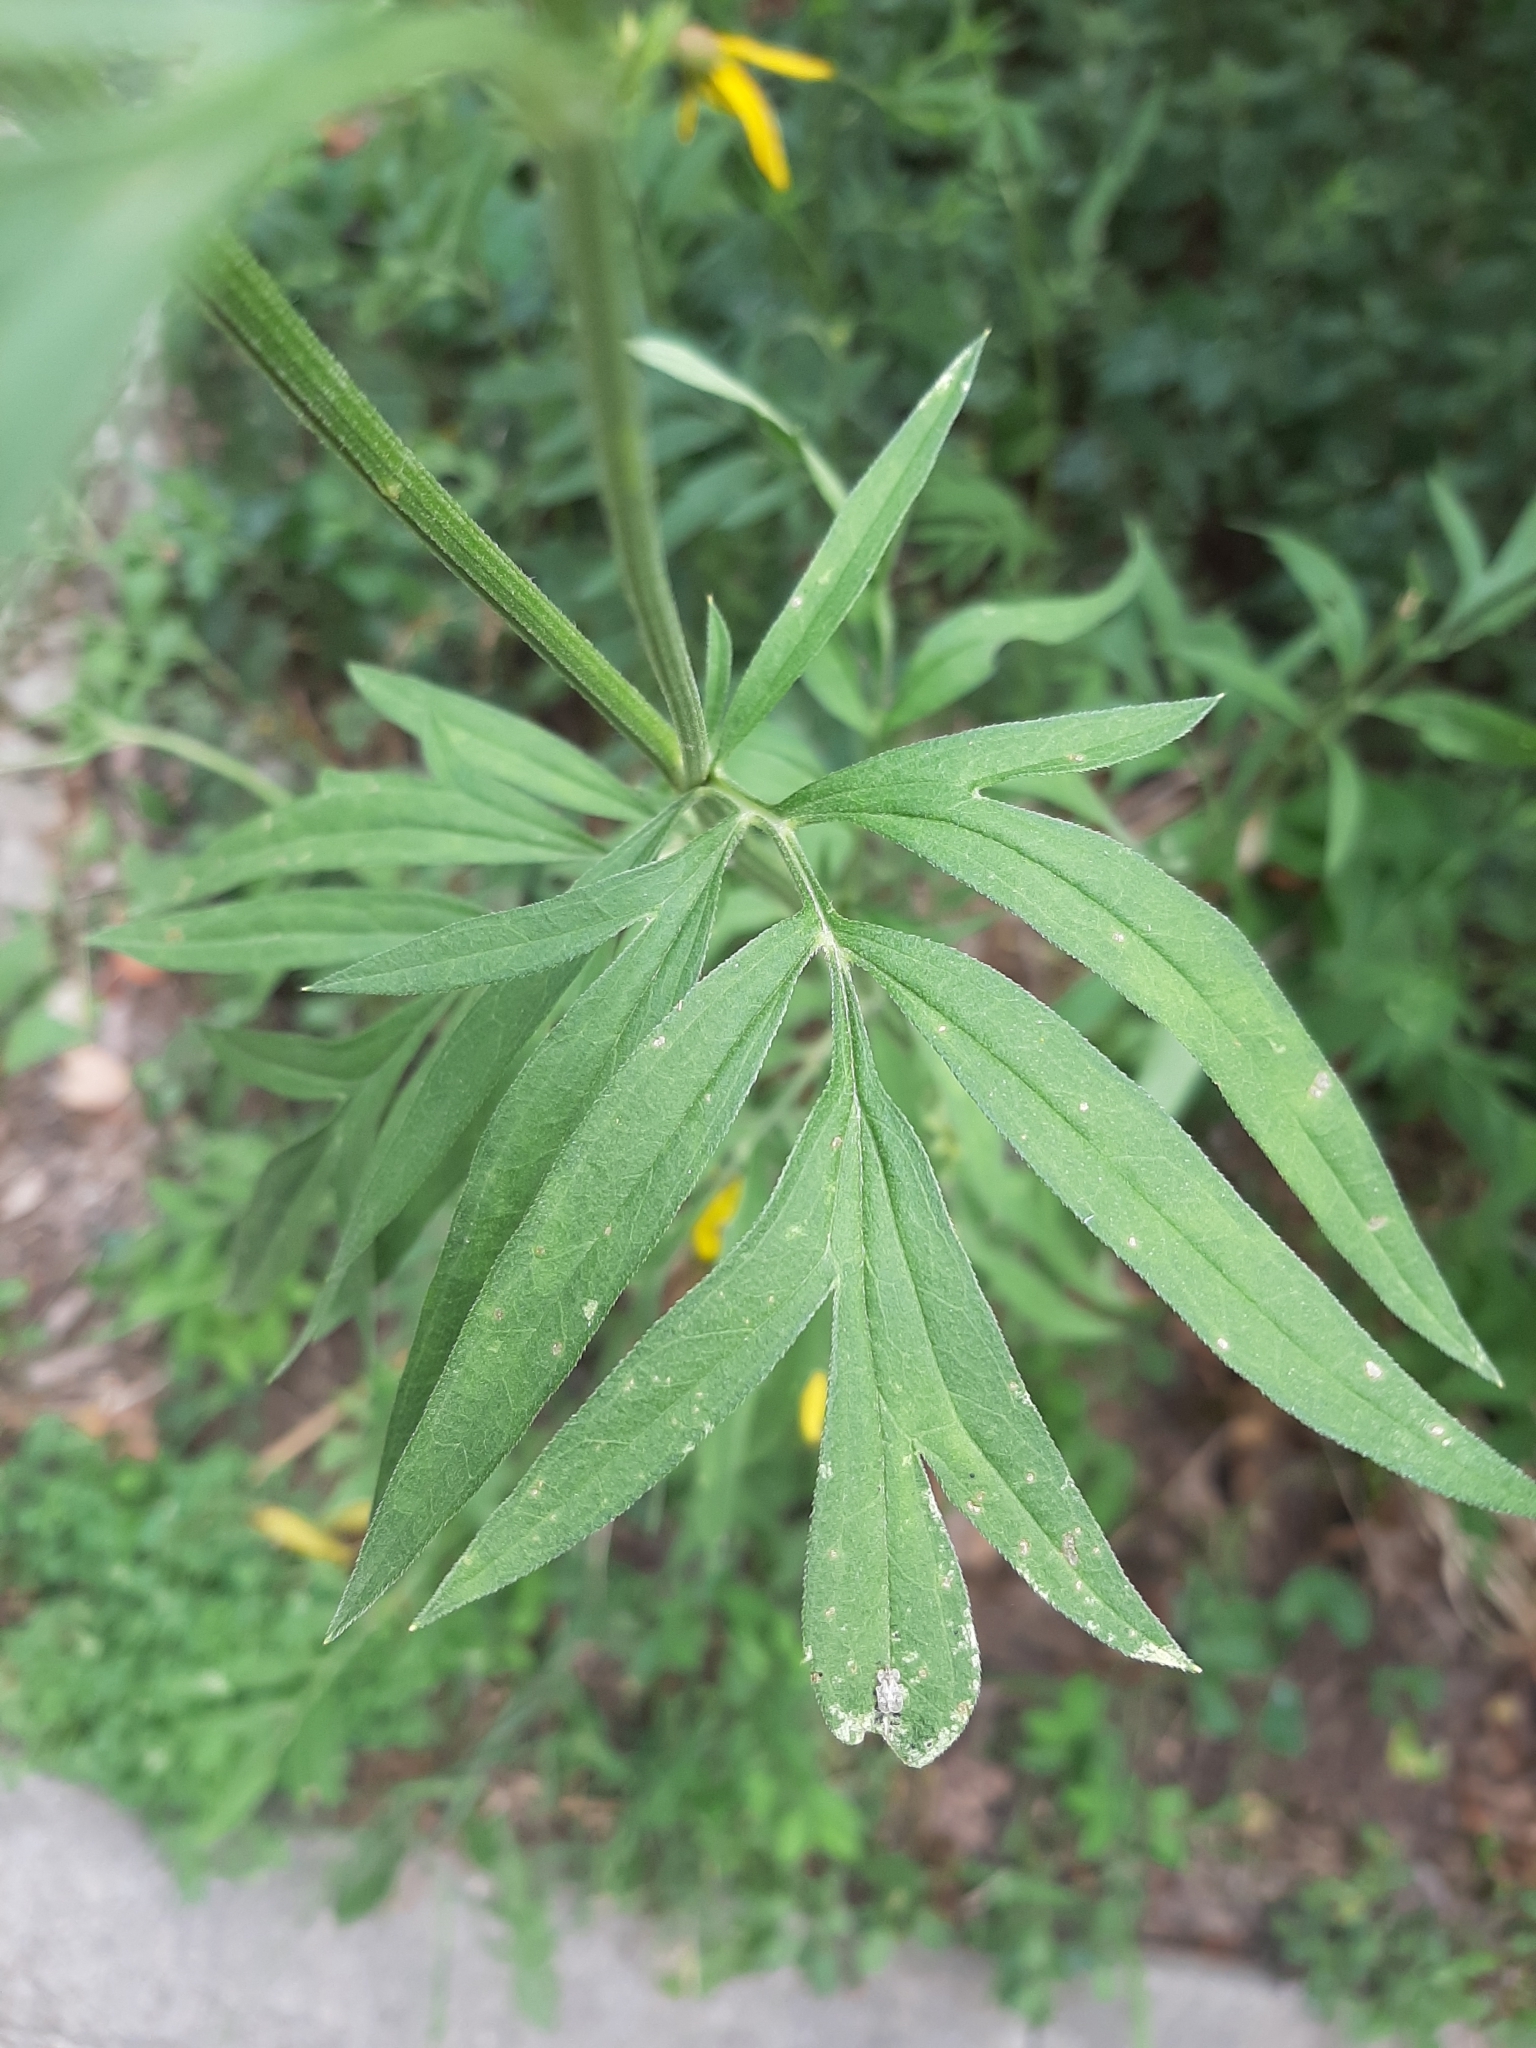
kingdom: Plantae
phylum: Tracheophyta
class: Magnoliopsida
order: Asterales
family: Asteraceae
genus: Ratibida
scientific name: Ratibida pinnata
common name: Drooping prairie-coneflower
